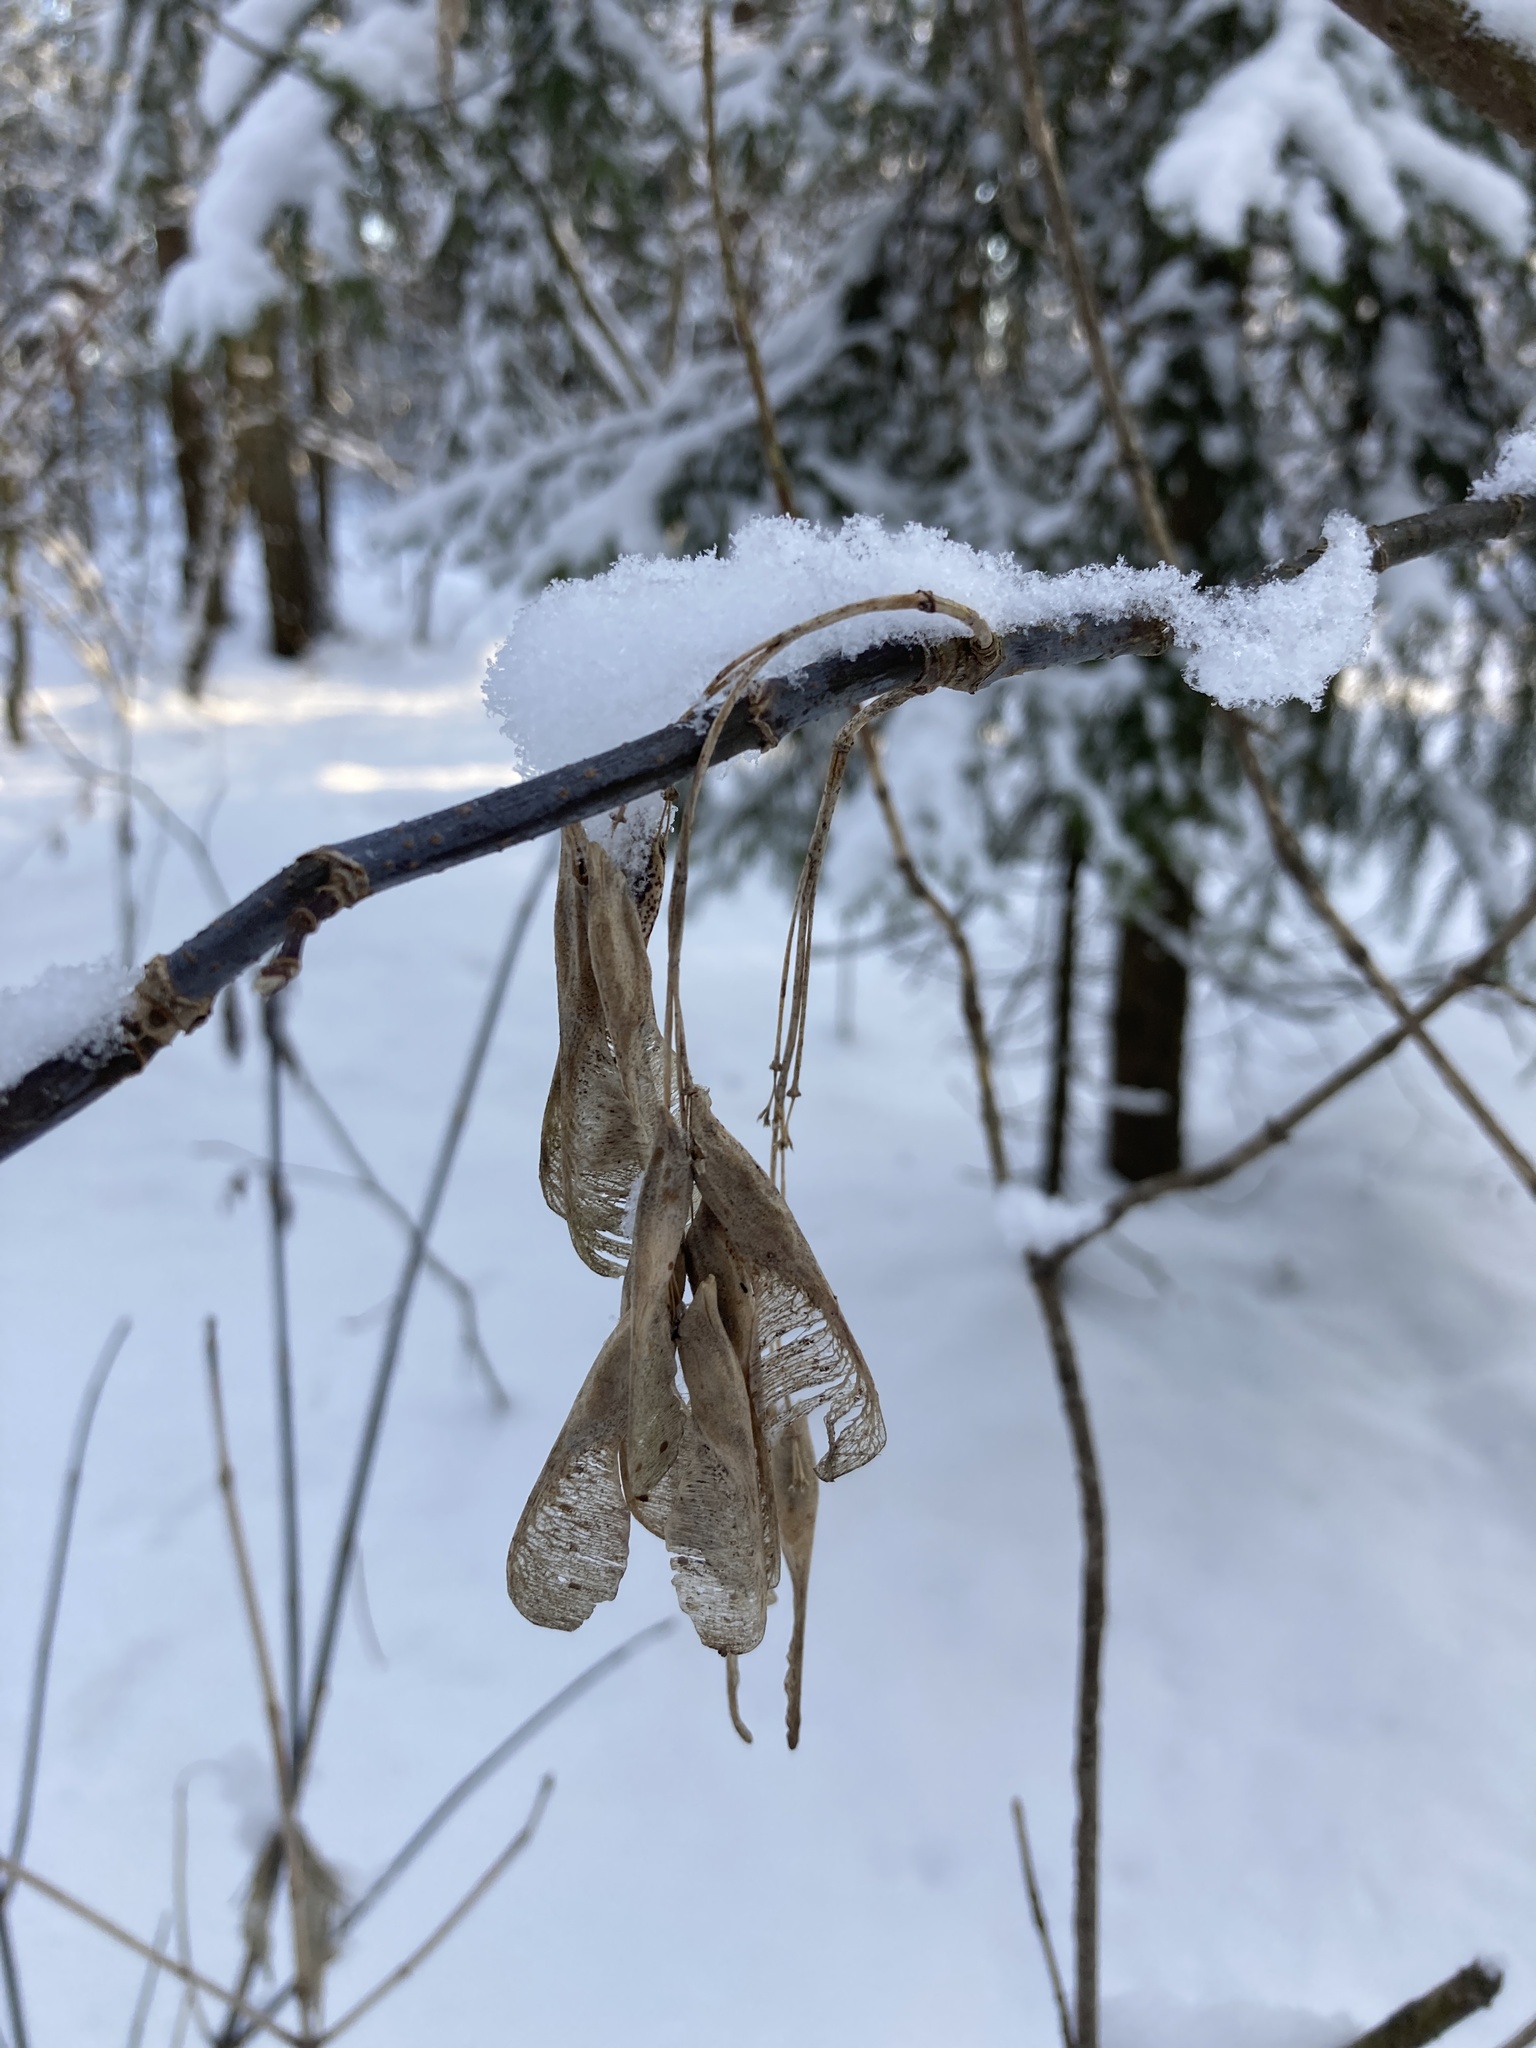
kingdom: Plantae
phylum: Tracheophyta
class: Magnoliopsida
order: Sapindales
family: Sapindaceae
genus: Acer
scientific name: Acer negundo
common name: Ashleaf maple
